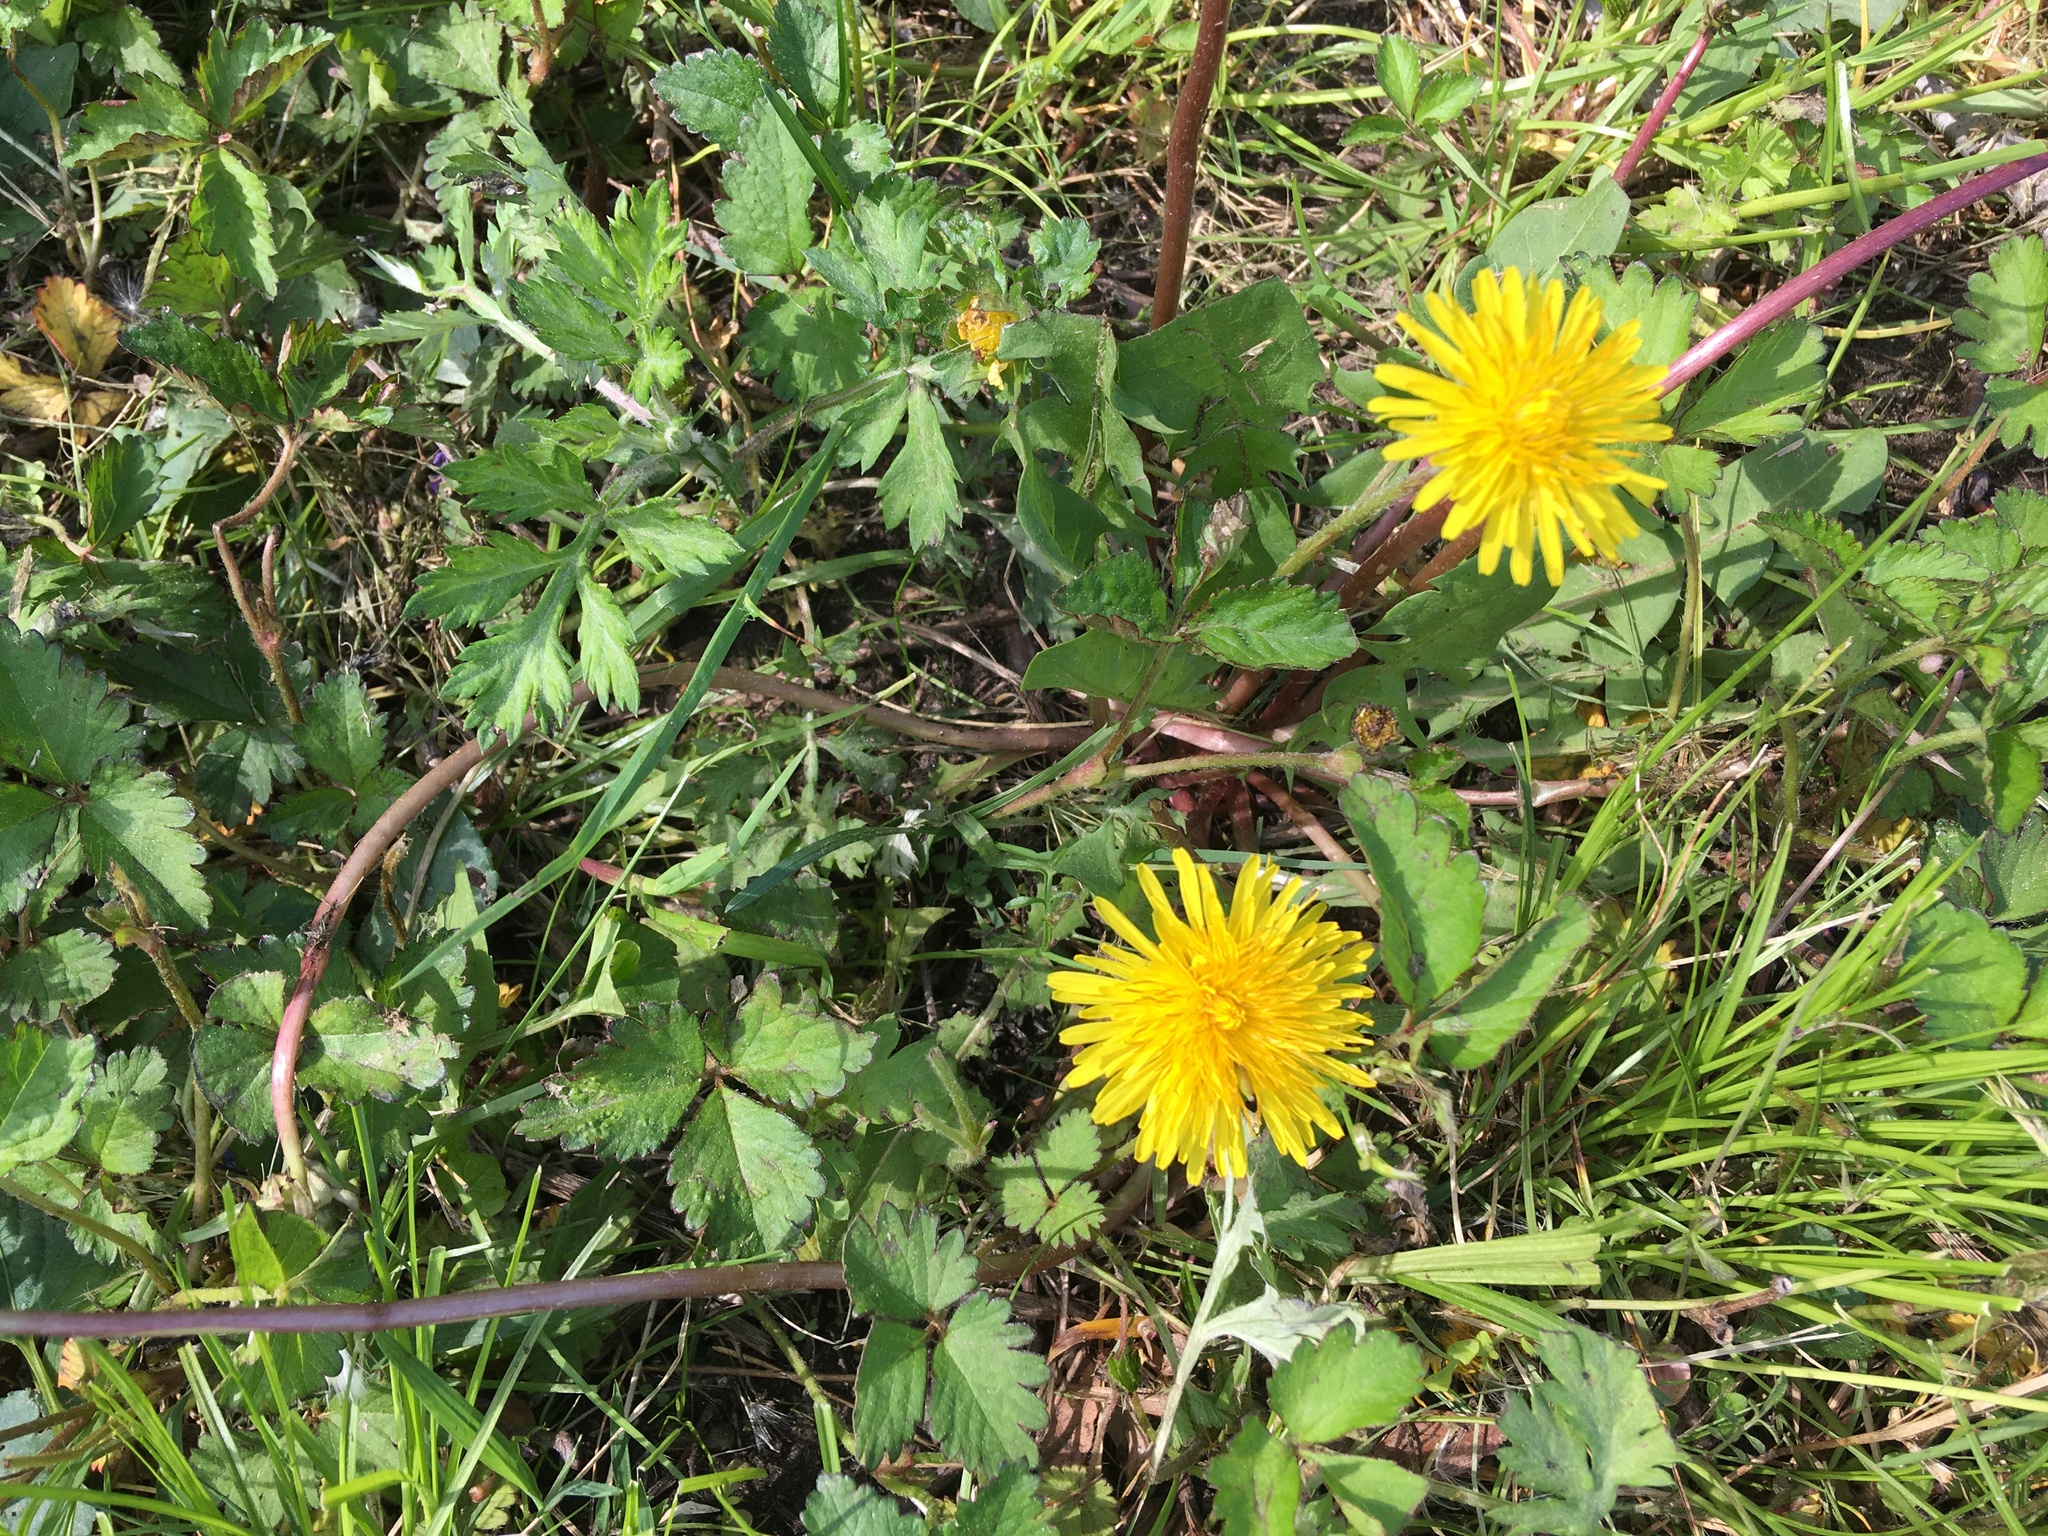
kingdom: Plantae
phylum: Tracheophyta
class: Magnoliopsida
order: Asterales
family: Asteraceae
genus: Taraxacum
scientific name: Taraxacum officinale
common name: Common dandelion
